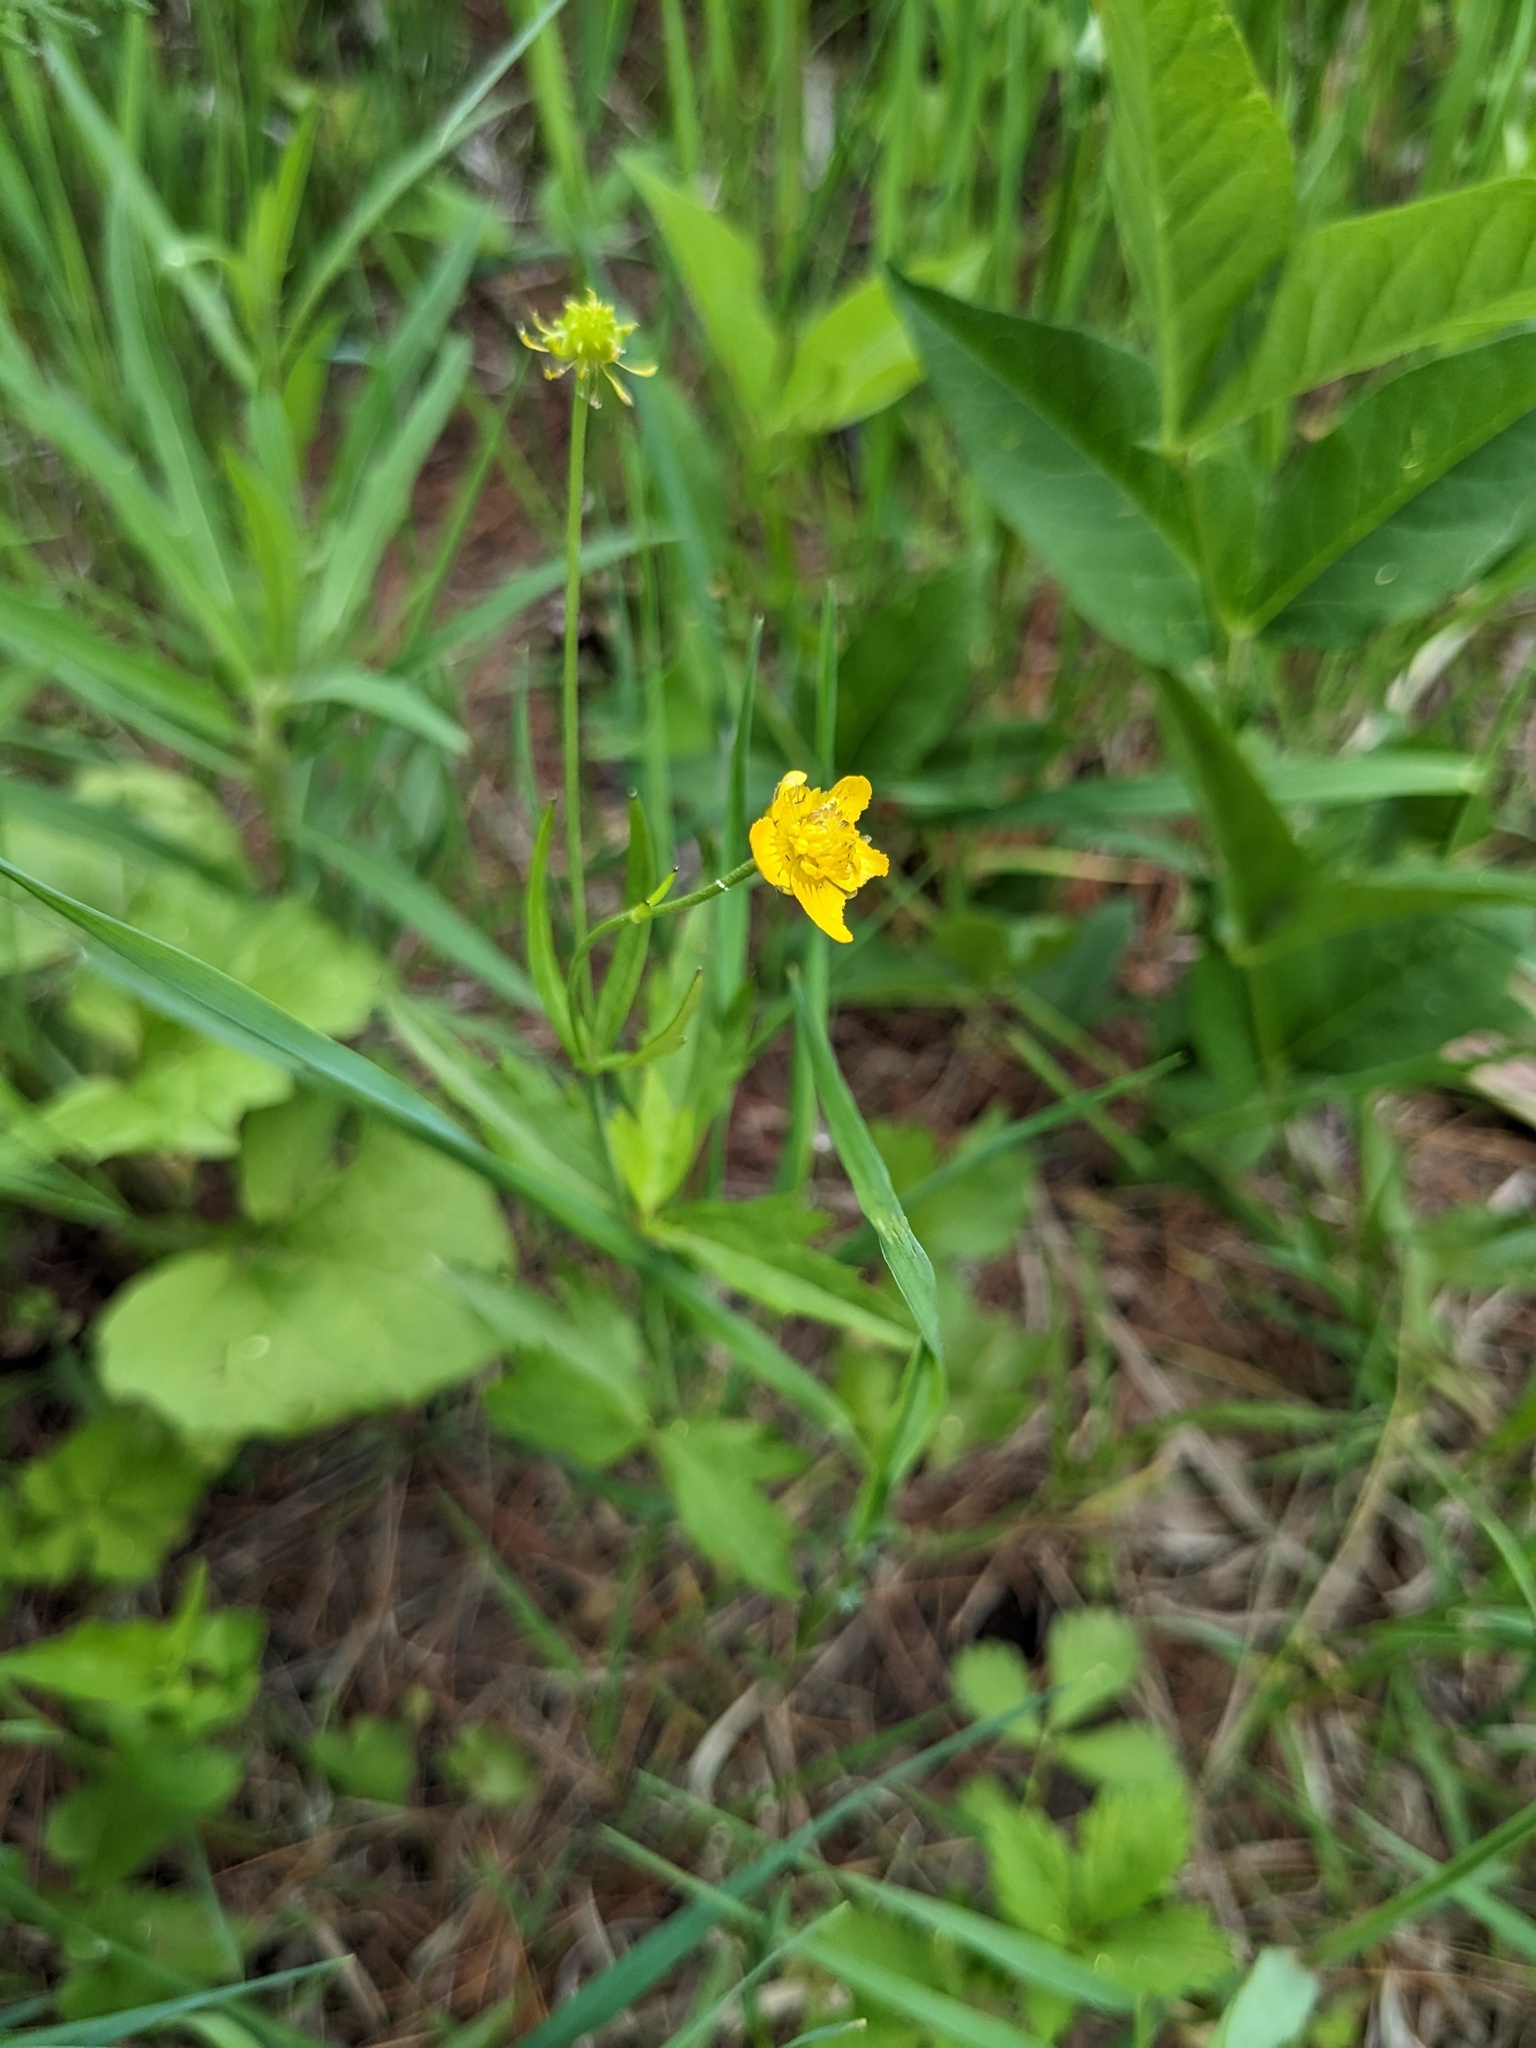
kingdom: Plantae
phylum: Tracheophyta
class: Magnoliopsida
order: Ranunculales
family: Ranunculaceae
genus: Ranunculus
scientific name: Ranunculus japonicus
